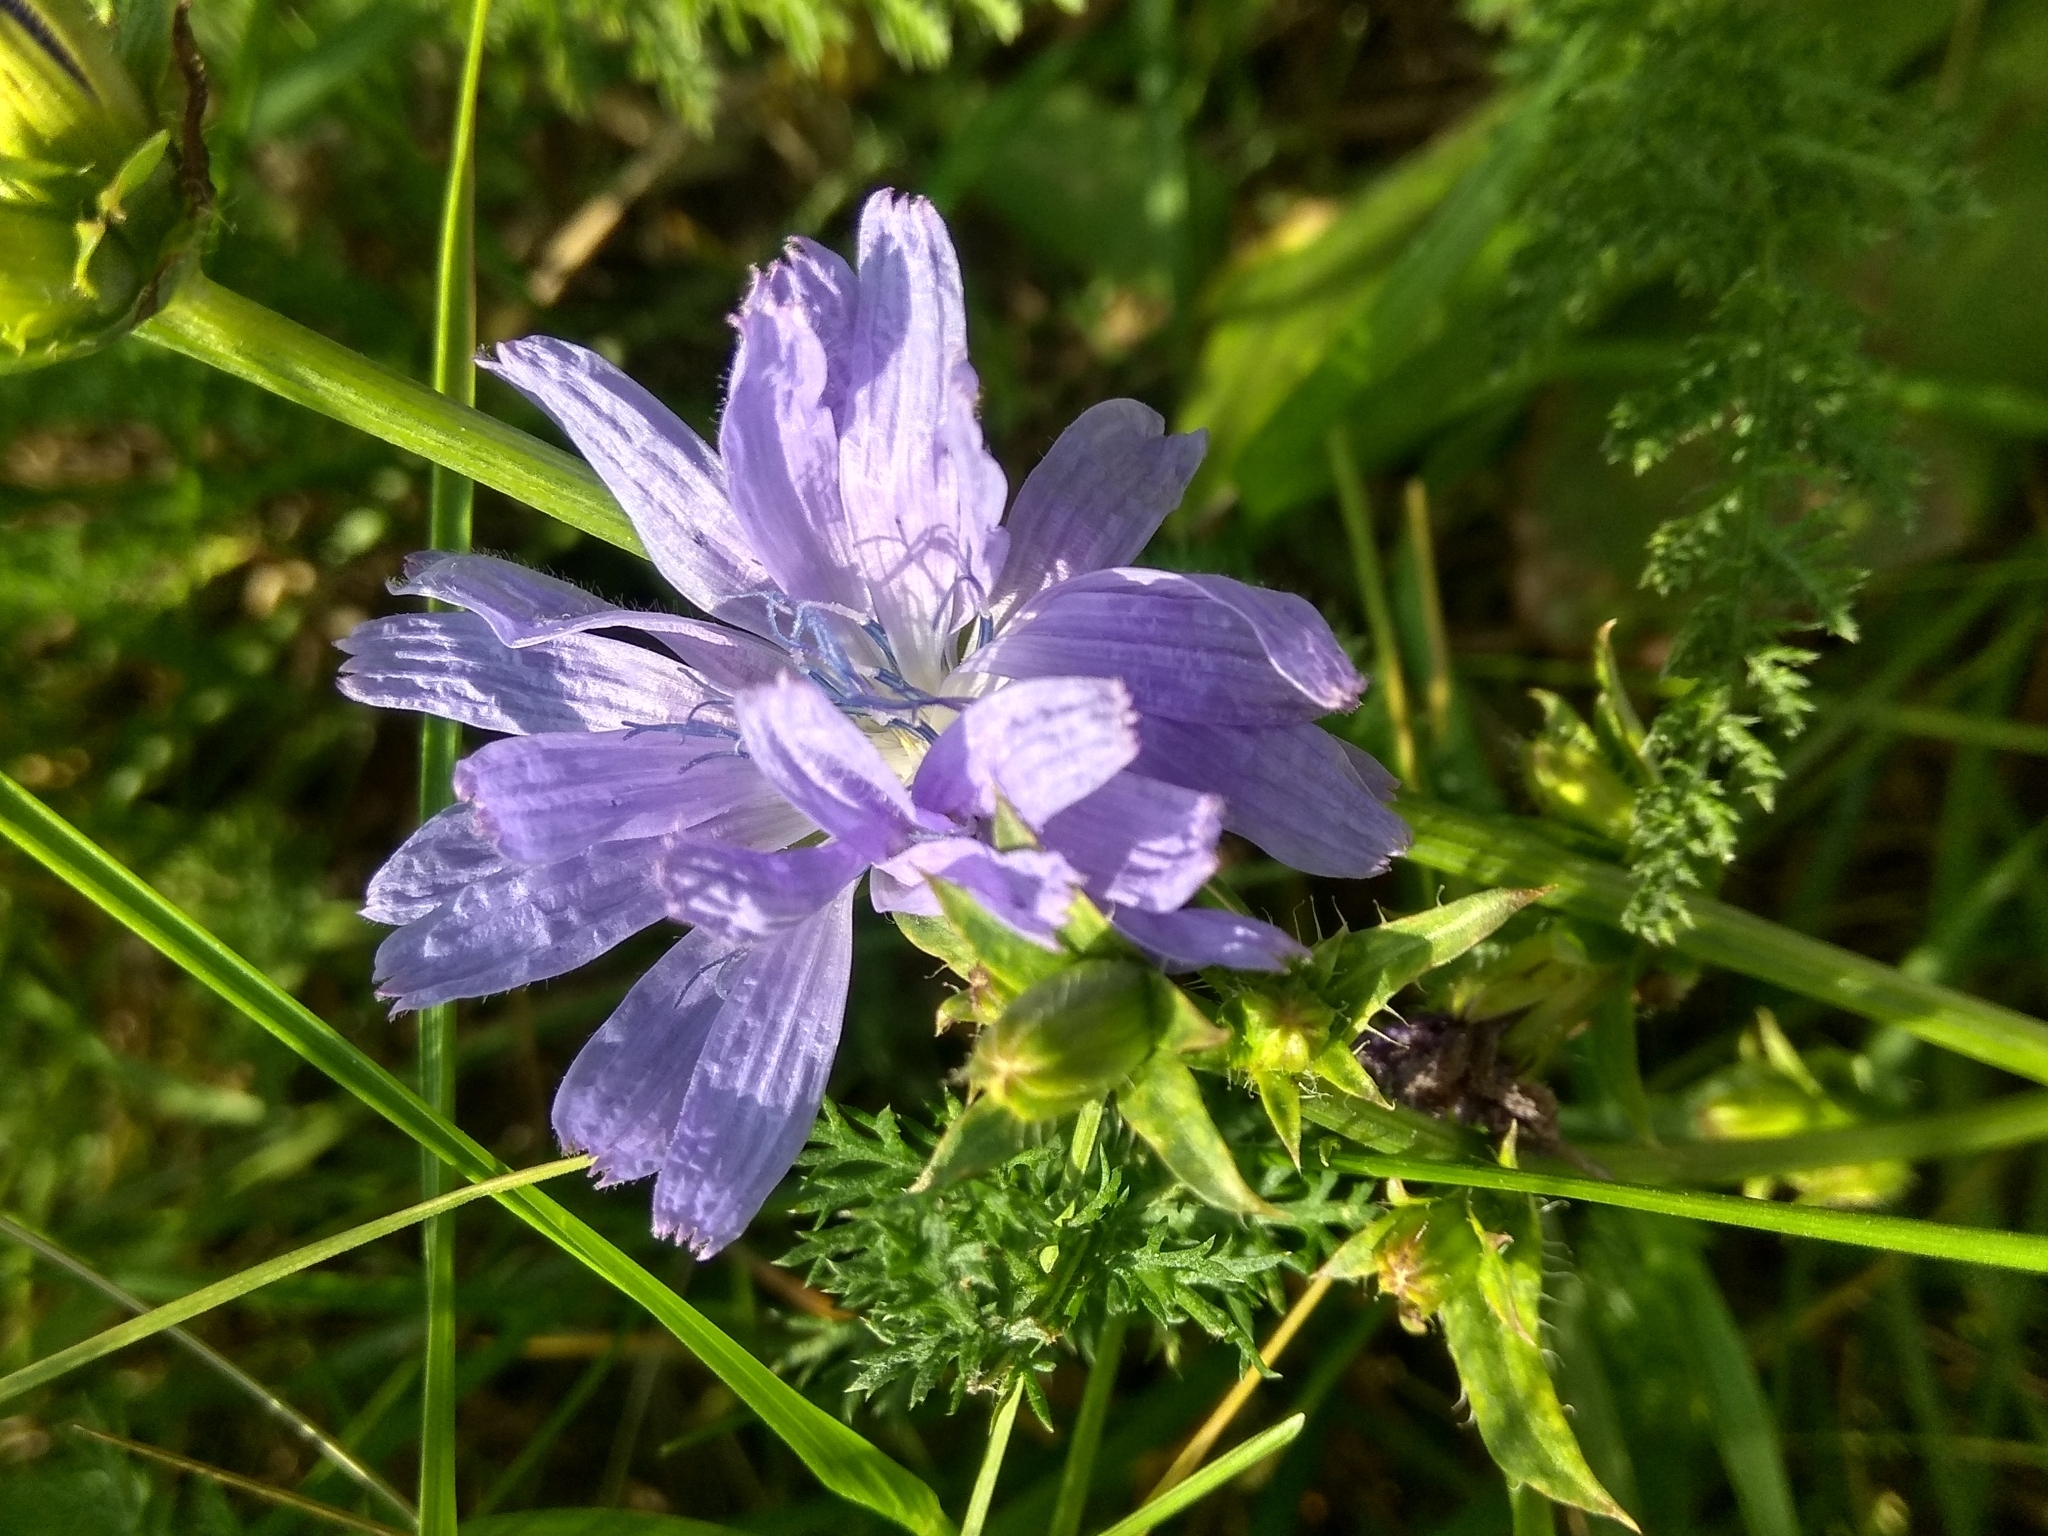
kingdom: Plantae
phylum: Tracheophyta
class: Magnoliopsida
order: Asterales
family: Asteraceae
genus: Cichorium
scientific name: Cichorium intybus
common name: Chicory
